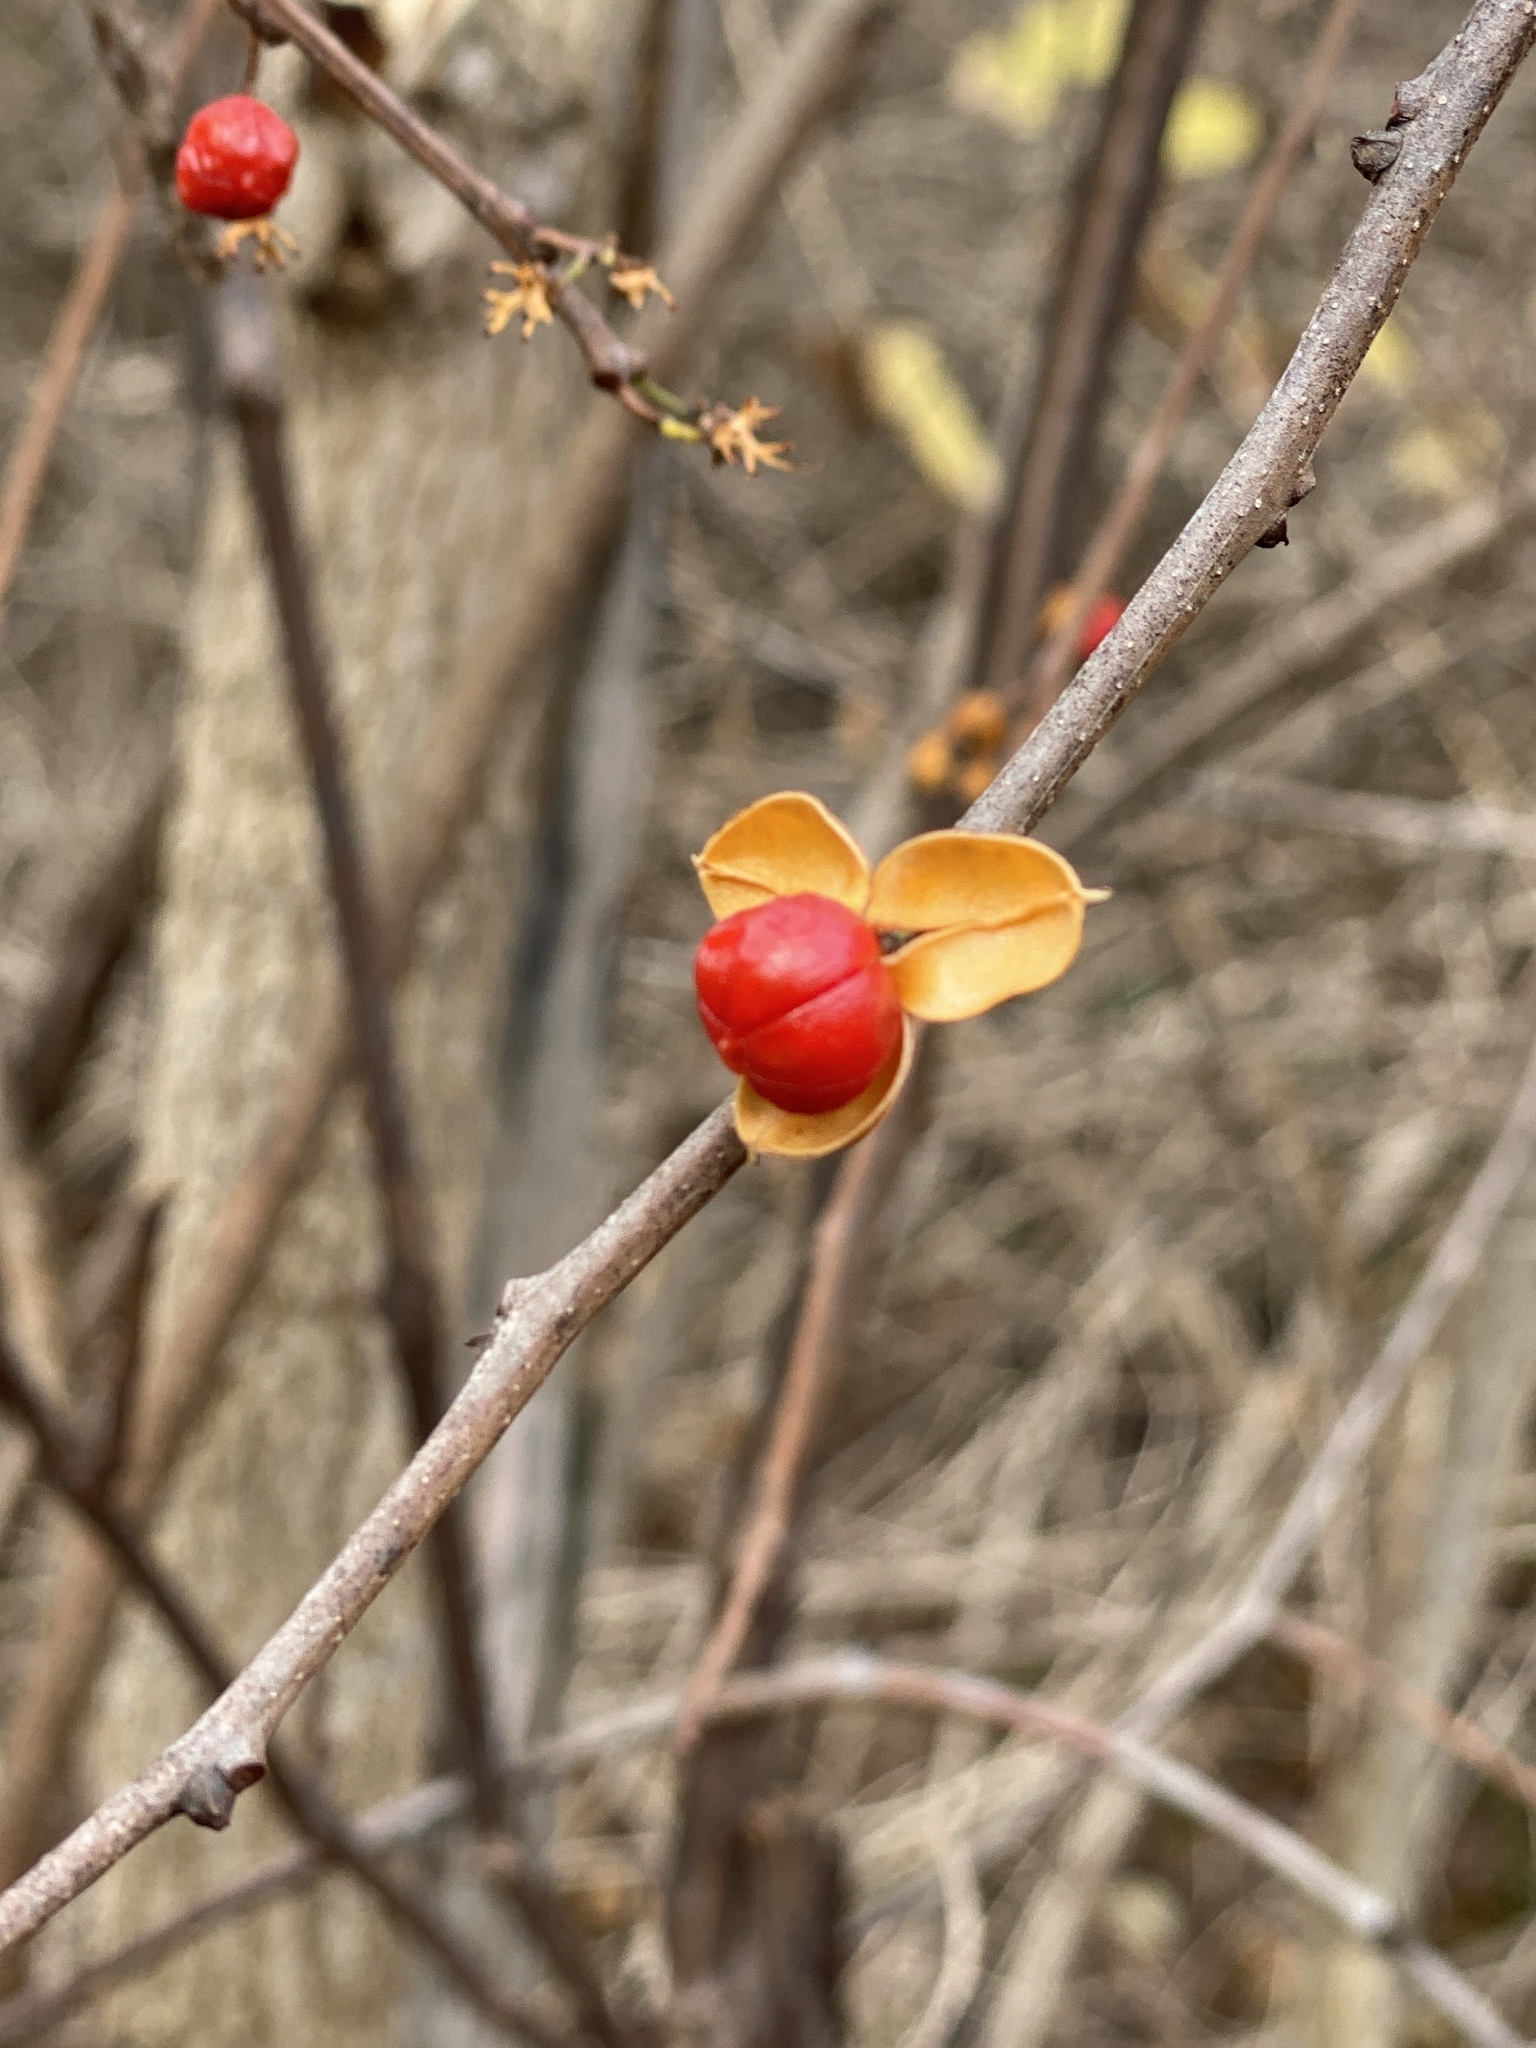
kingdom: Plantae
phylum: Tracheophyta
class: Magnoliopsida
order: Celastrales
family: Celastraceae
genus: Celastrus
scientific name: Celastrus orbiculatus
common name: Oriental bittersweet
